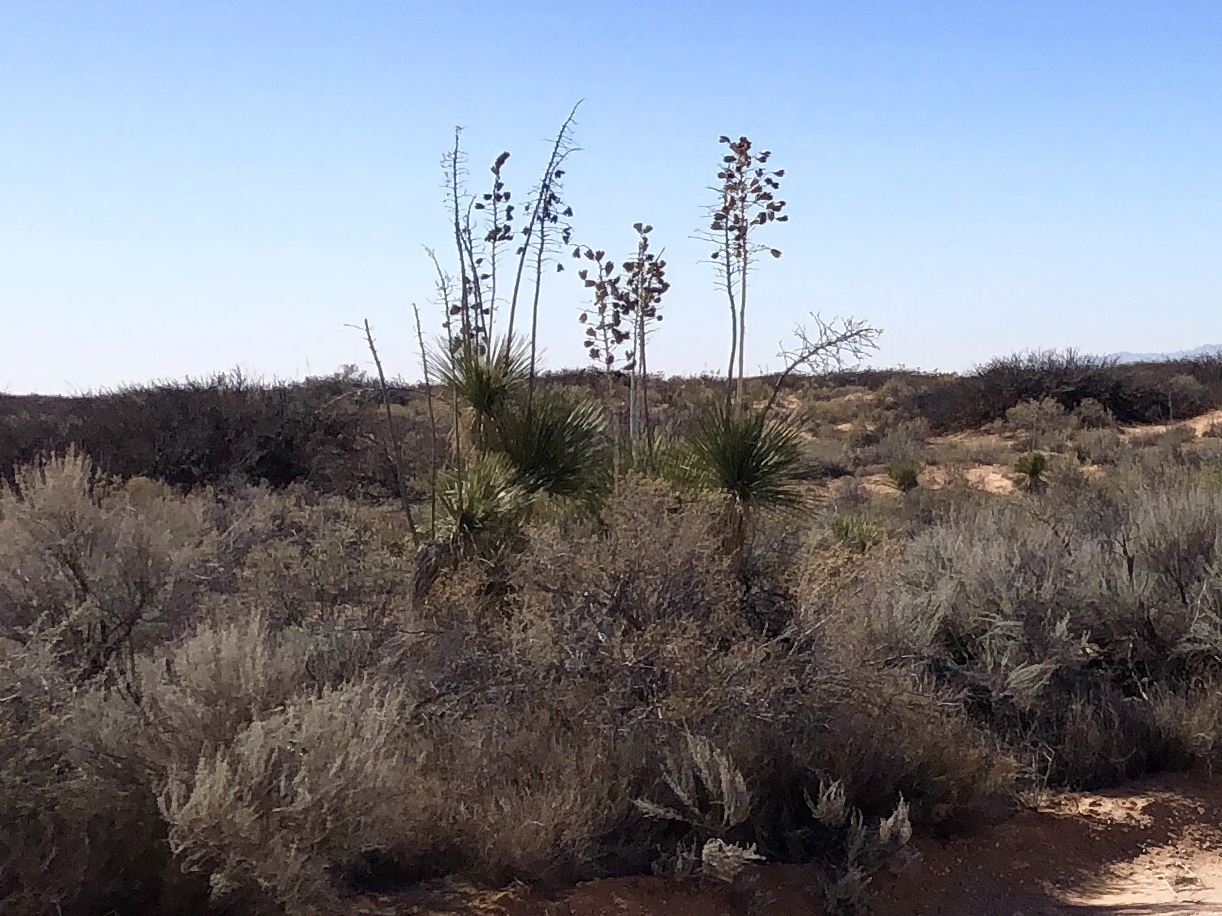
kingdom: Plantae
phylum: Tracheophyta
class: Liliopsida
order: Asparagales
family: Asparagaceae
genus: Yucca
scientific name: Yucca elata
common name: Palmella
